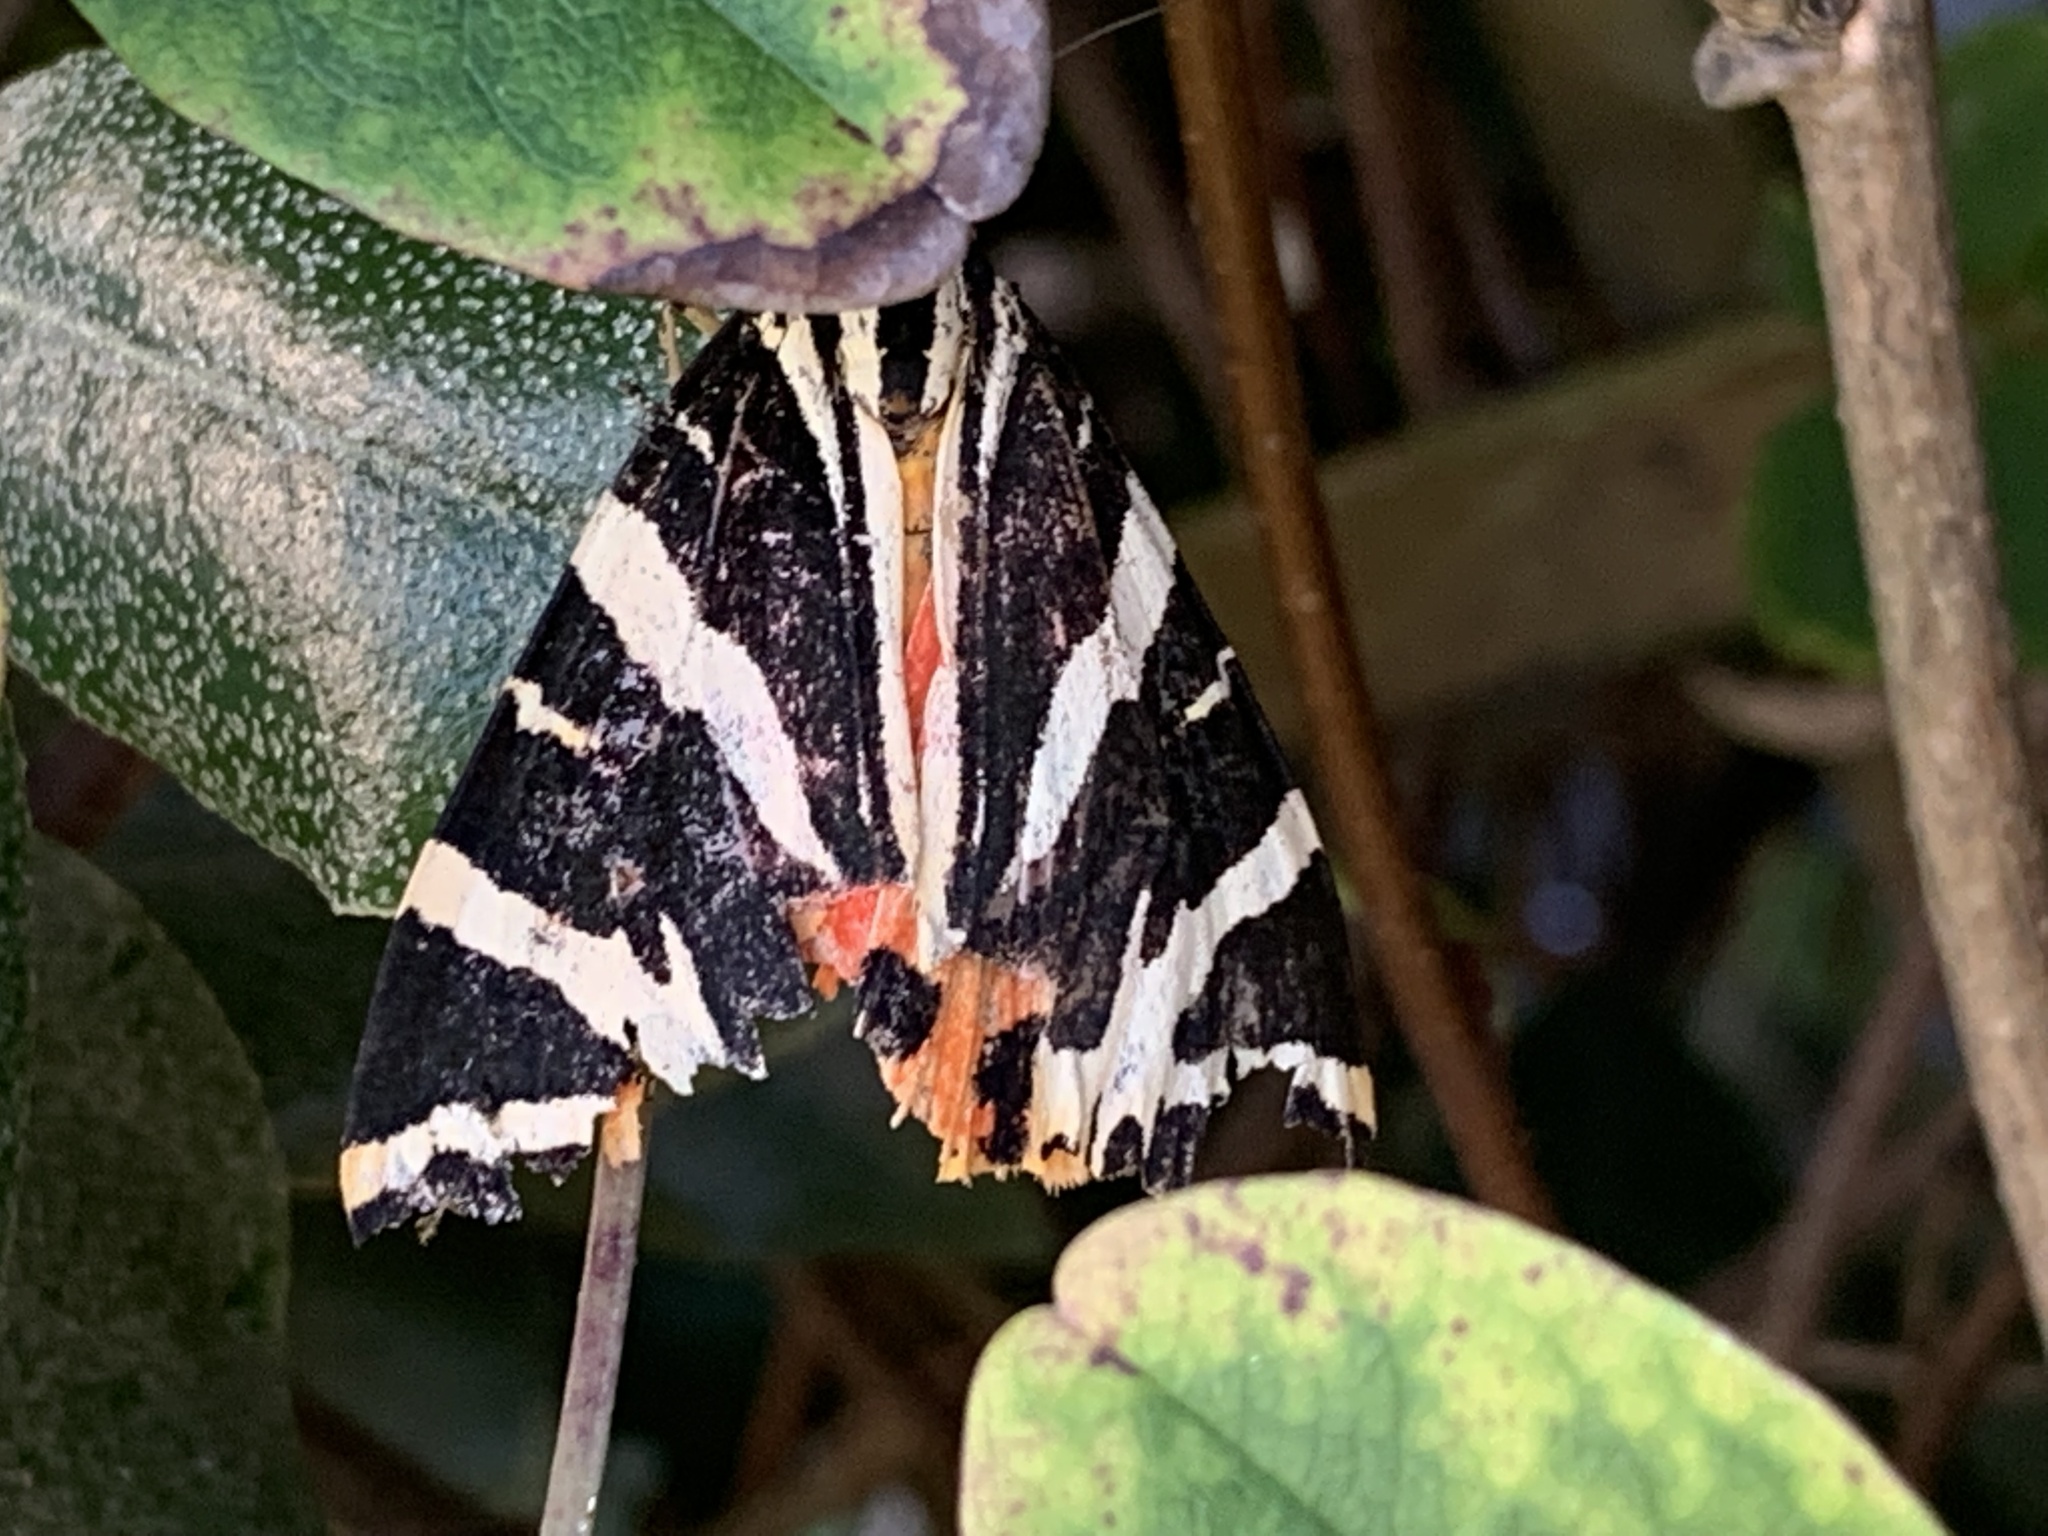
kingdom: Animalia
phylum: Arthropoda
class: Insecta
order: Lepidoptera
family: Erebidae
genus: Euplagia
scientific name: Euplagia quadripunctaria
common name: Jersey tiger
